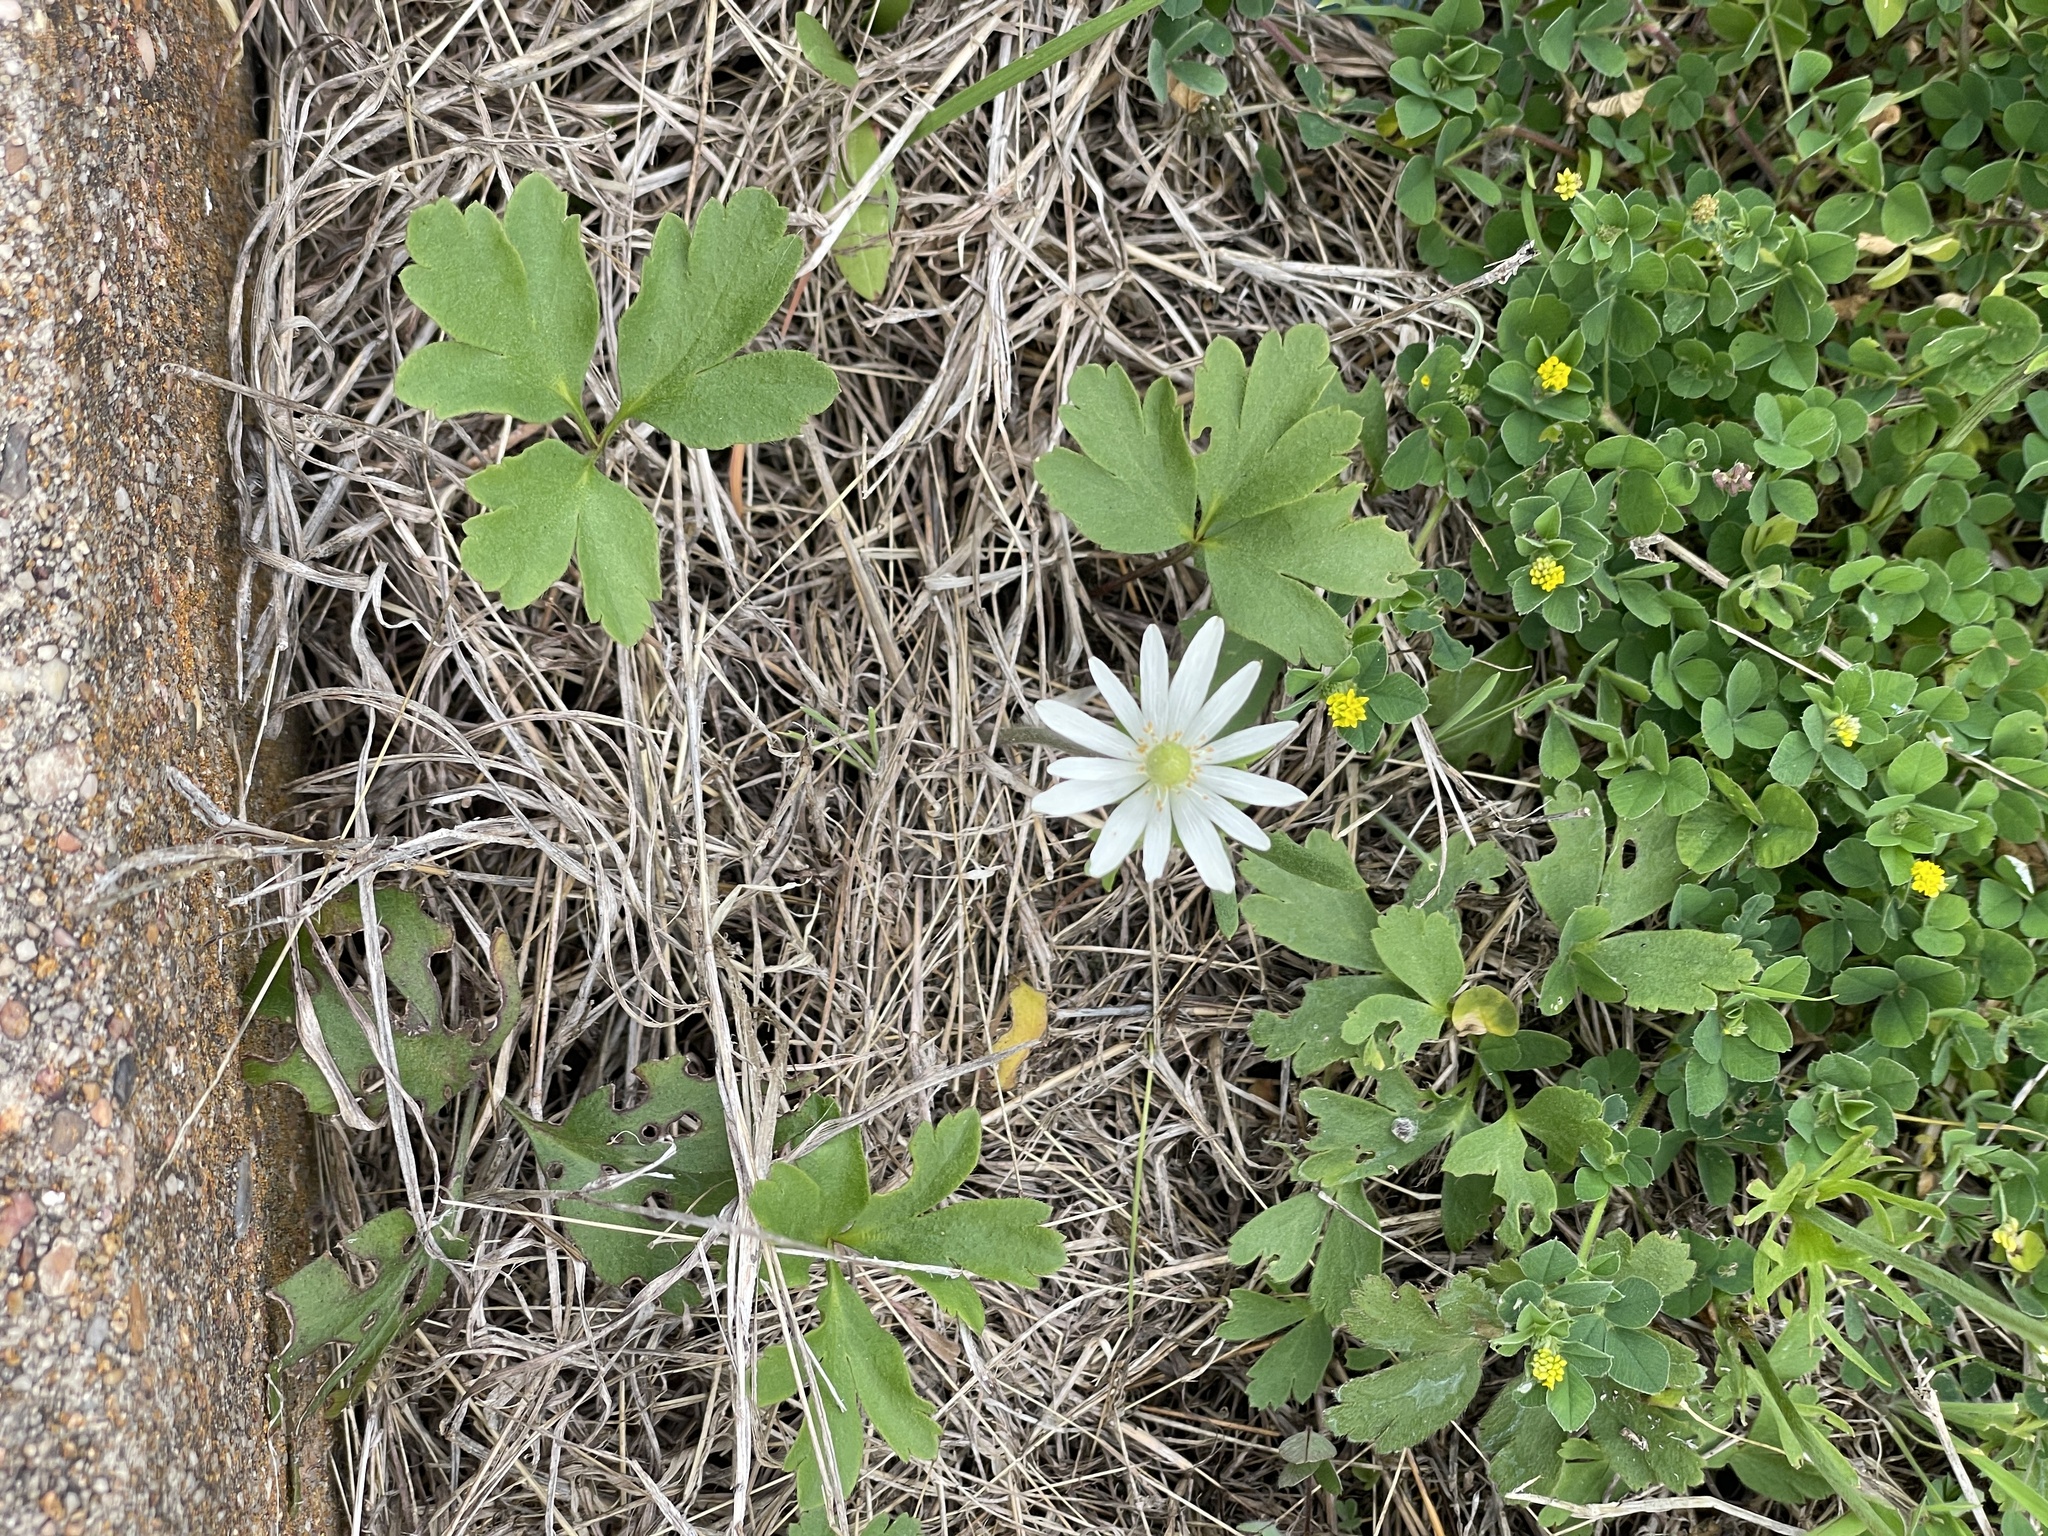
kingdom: Plantae
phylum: Tracheophyta
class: Magnoliopsida
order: Ranunculales
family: Ranunculaceae
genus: Anemone
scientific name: Anemone berlandieri
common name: Ten-petal anemone
